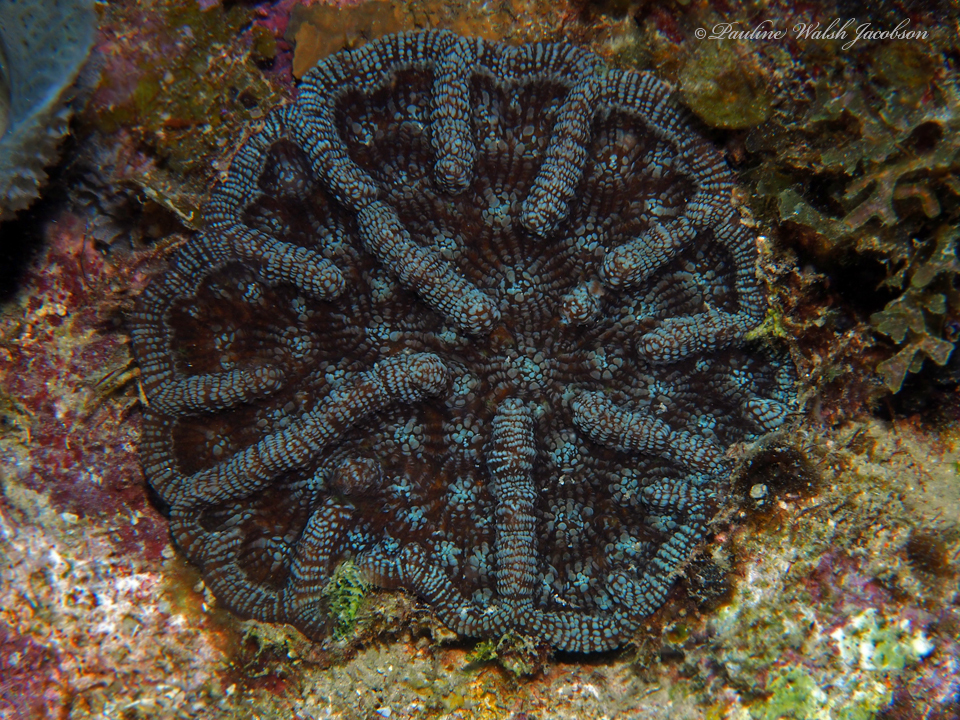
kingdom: Animalia
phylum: Cnidaria
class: Anthozoa
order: Scleractinia
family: Faviidae
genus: Mycetophyllia
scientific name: Mycetophyllia aliciae
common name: Knobby cactus coral
